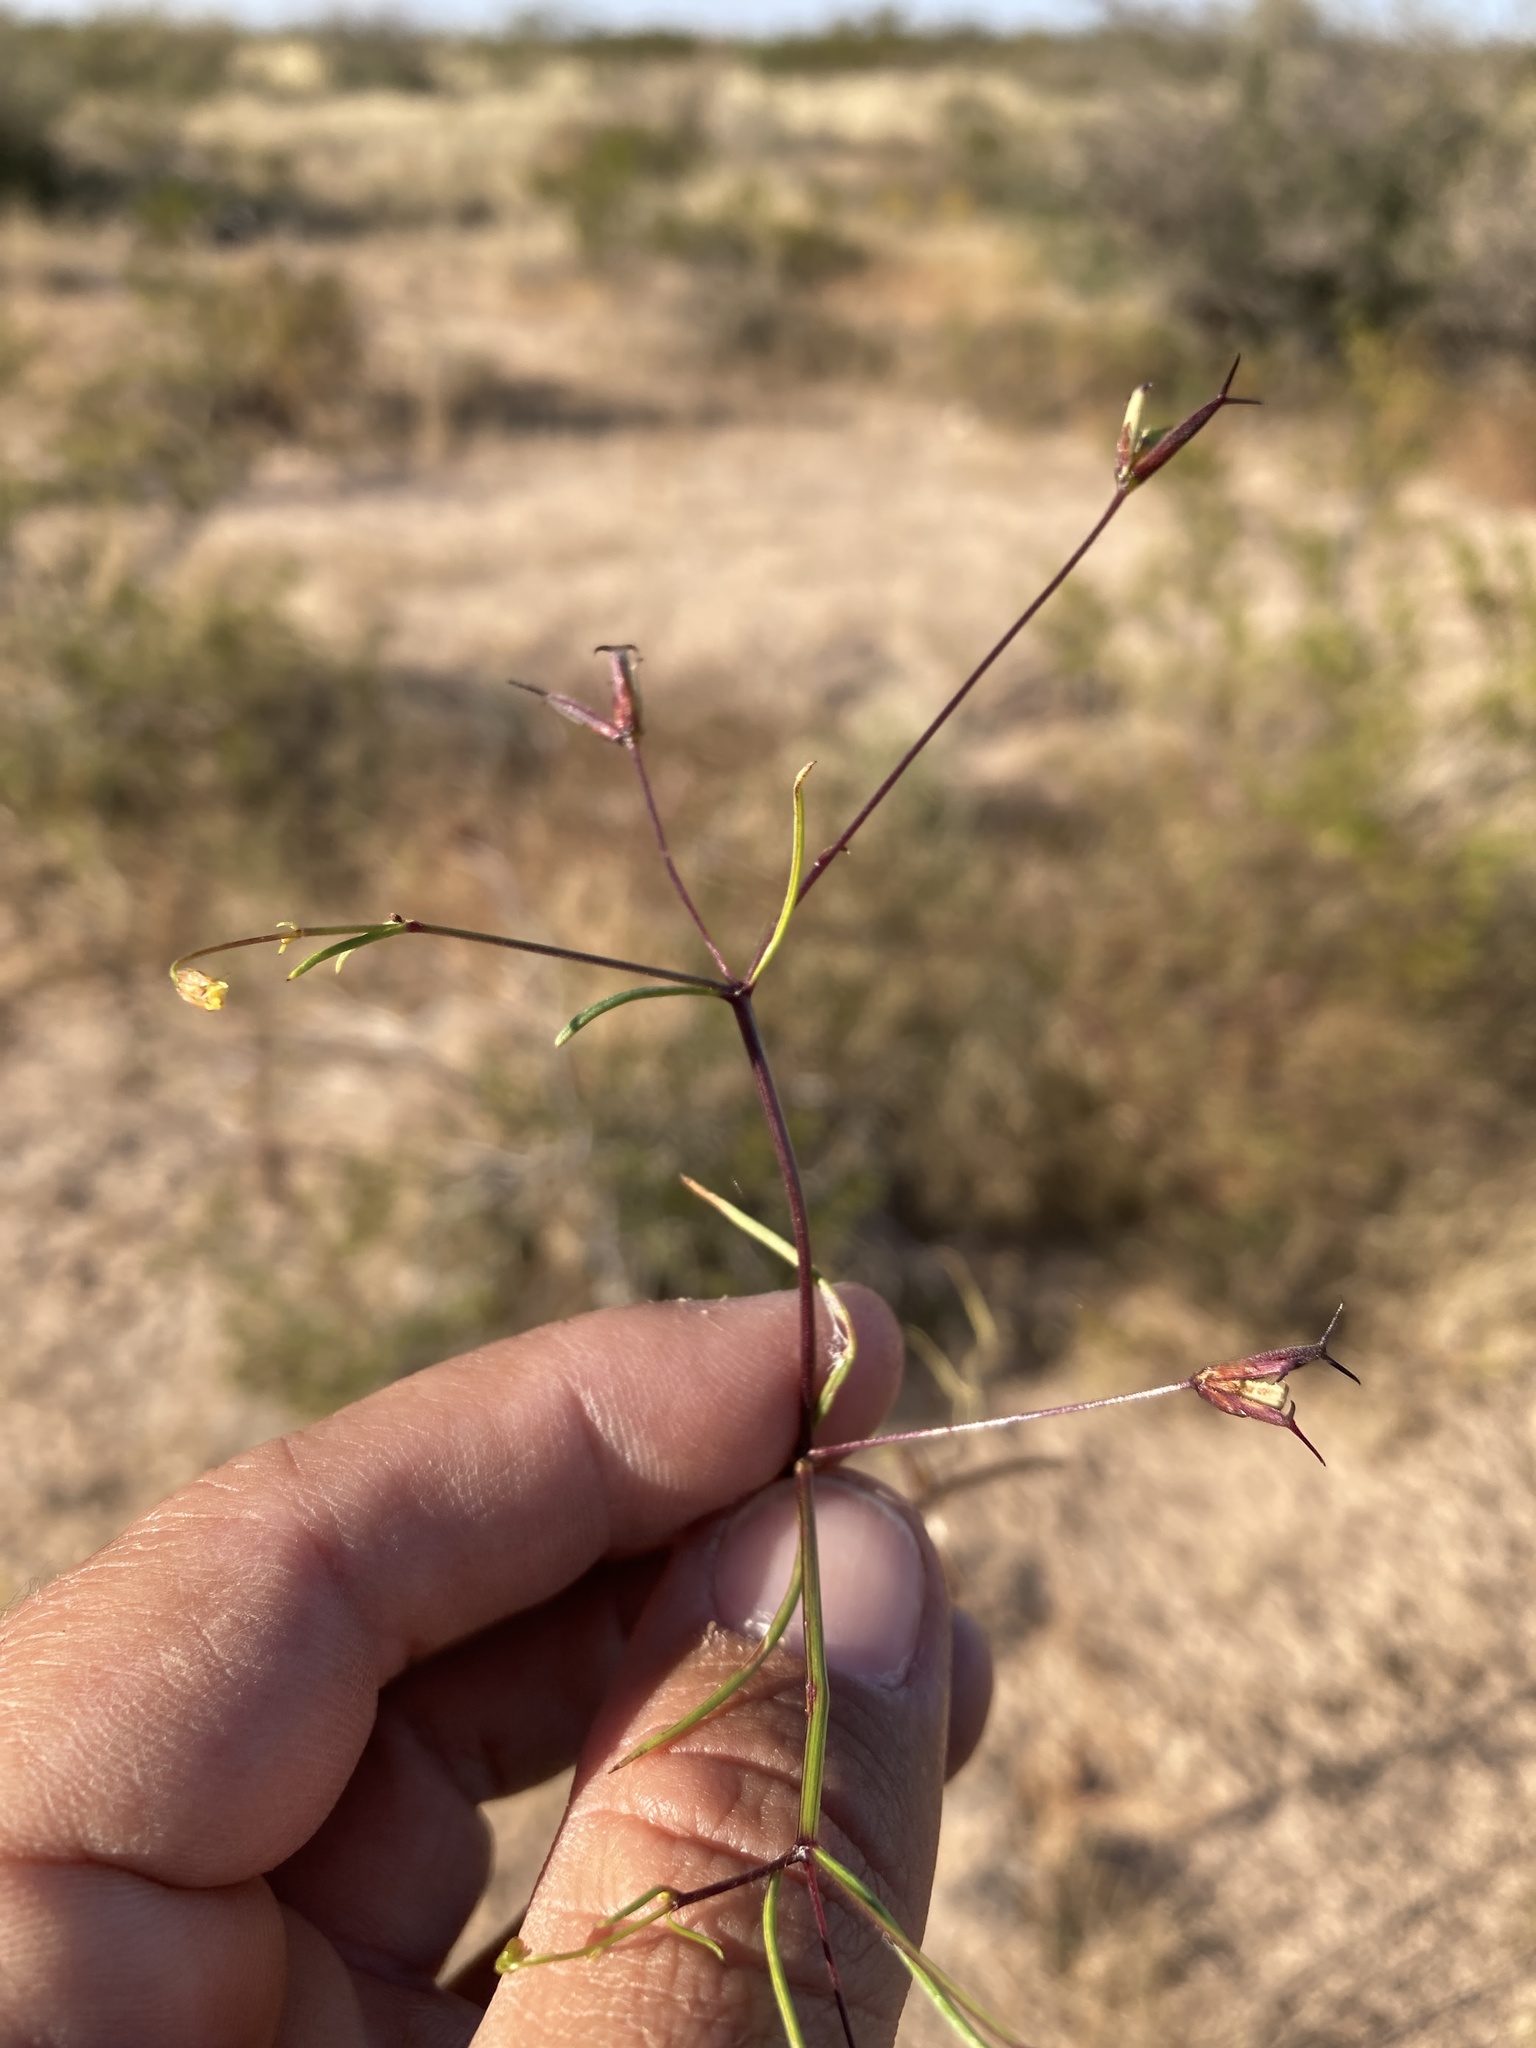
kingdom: Plantae
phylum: Tracheophyta
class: Magnoliopsida
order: Asterales
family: Asteraceae
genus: Dicranocarpus
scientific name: Dicranocarpus parviflorus
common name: Pitchfork
